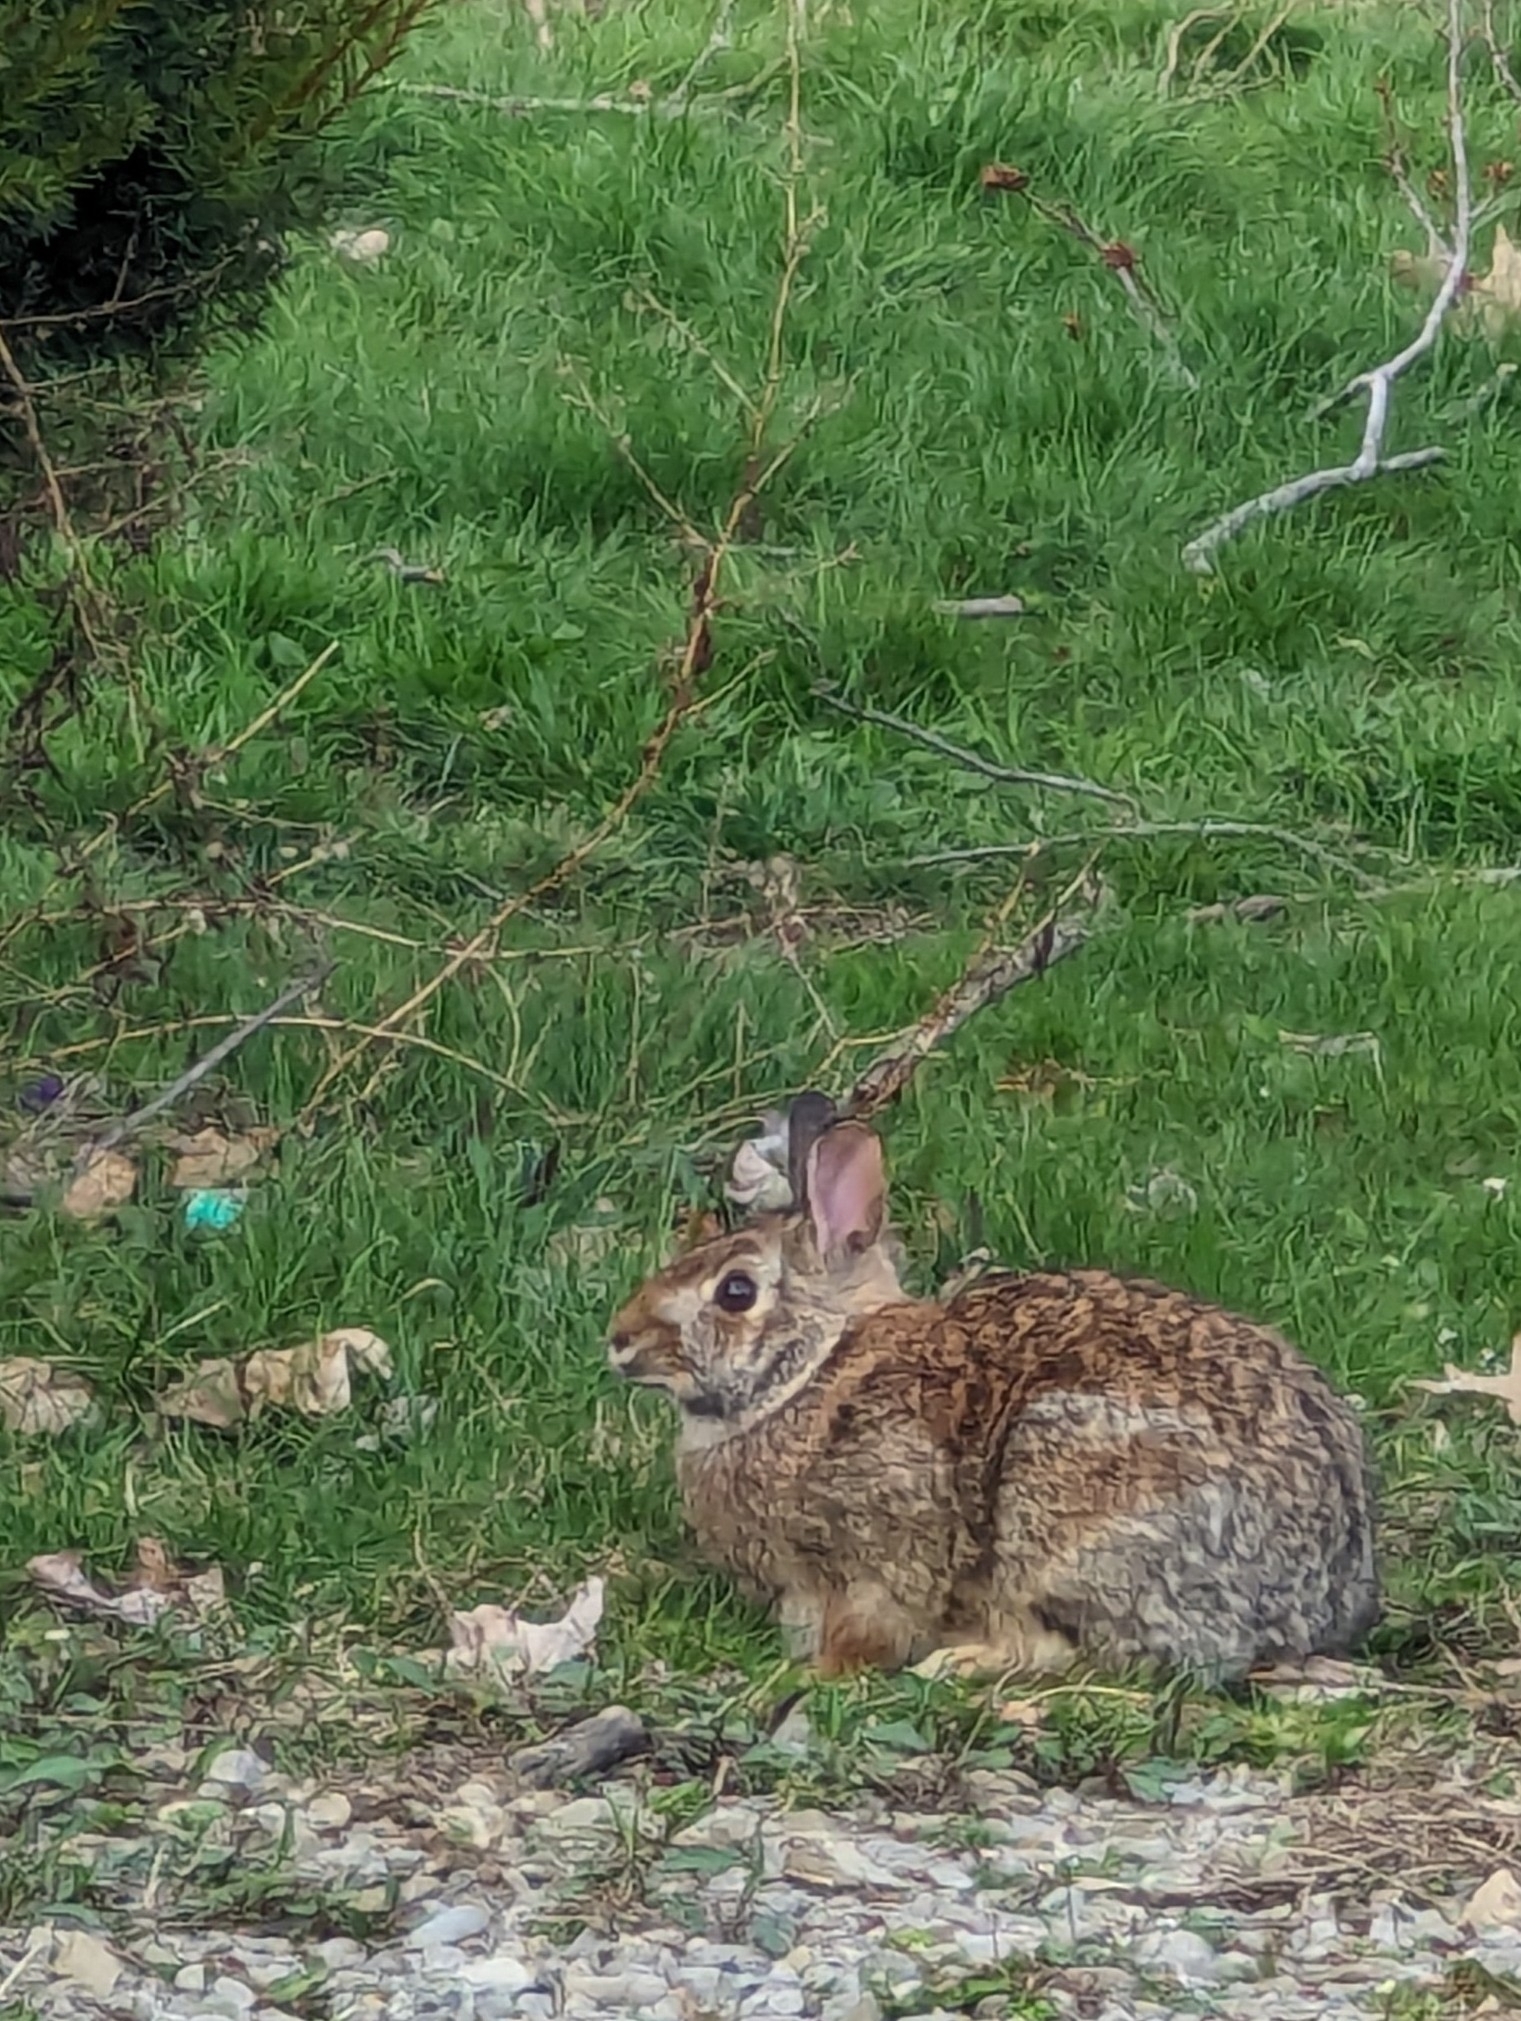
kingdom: Animalia
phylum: Chordata
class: Mammalia
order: Lagomorpha
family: Leporidae
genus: Sylvilagus
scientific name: Sylvilagus floridanus
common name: Eastern cottontail
